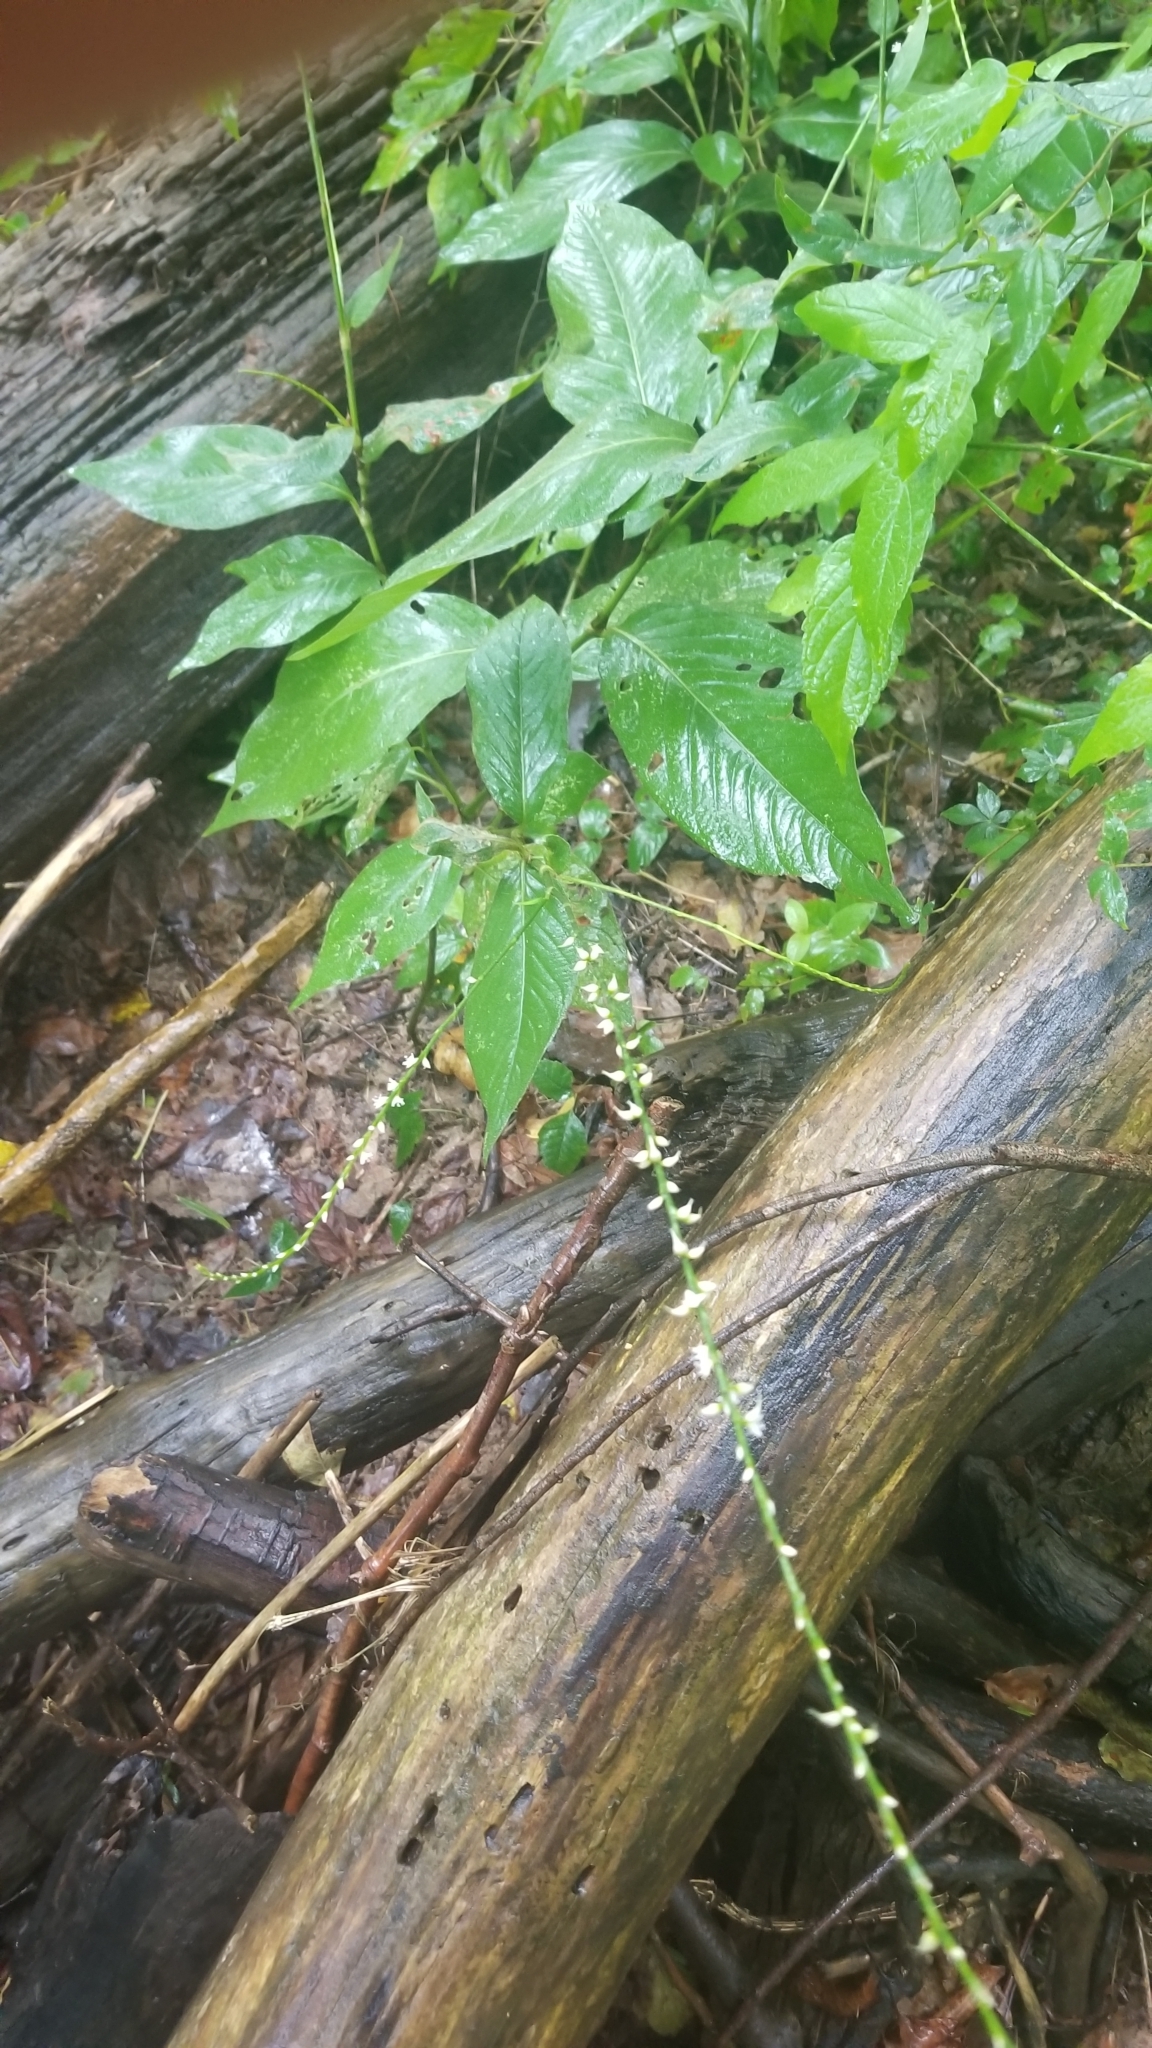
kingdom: Plantae
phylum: Tracheophyta
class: Magnoliopsida
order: Caryophyllales
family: Polygonaceae
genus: Persicaria
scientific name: Persicaria virginiana
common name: Jumpseed
